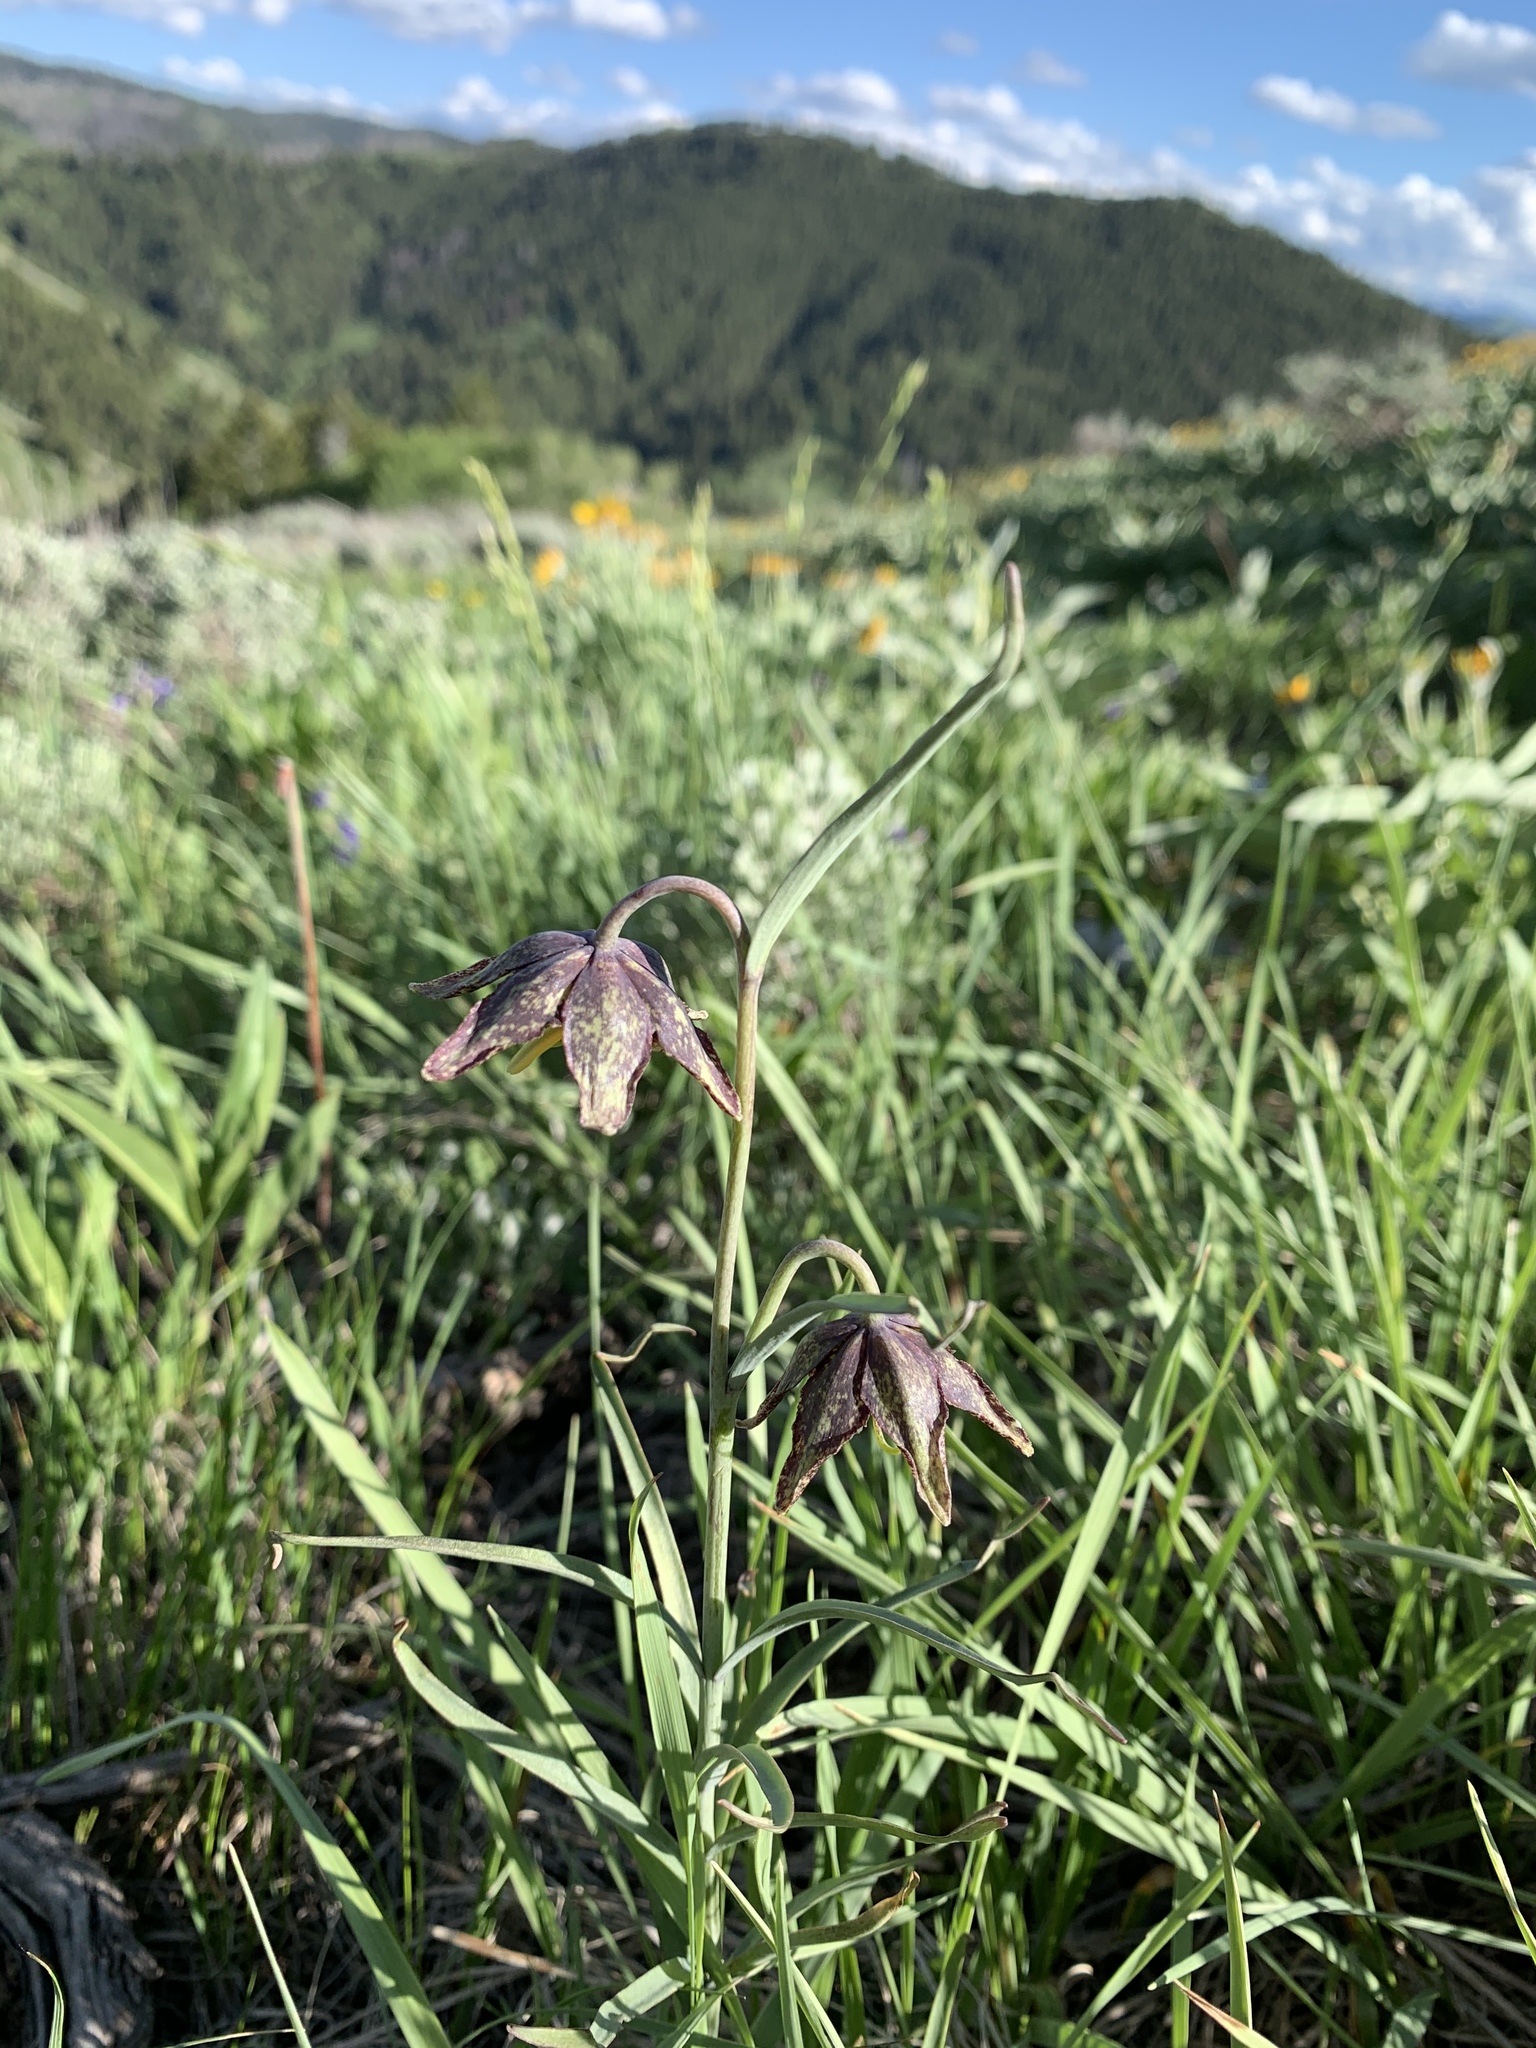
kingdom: Plantae
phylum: Tracheophyta
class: Liliopsida
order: Liliales
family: Liliaceae
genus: Fritillaria
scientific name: Fritillaria atropurpurea
